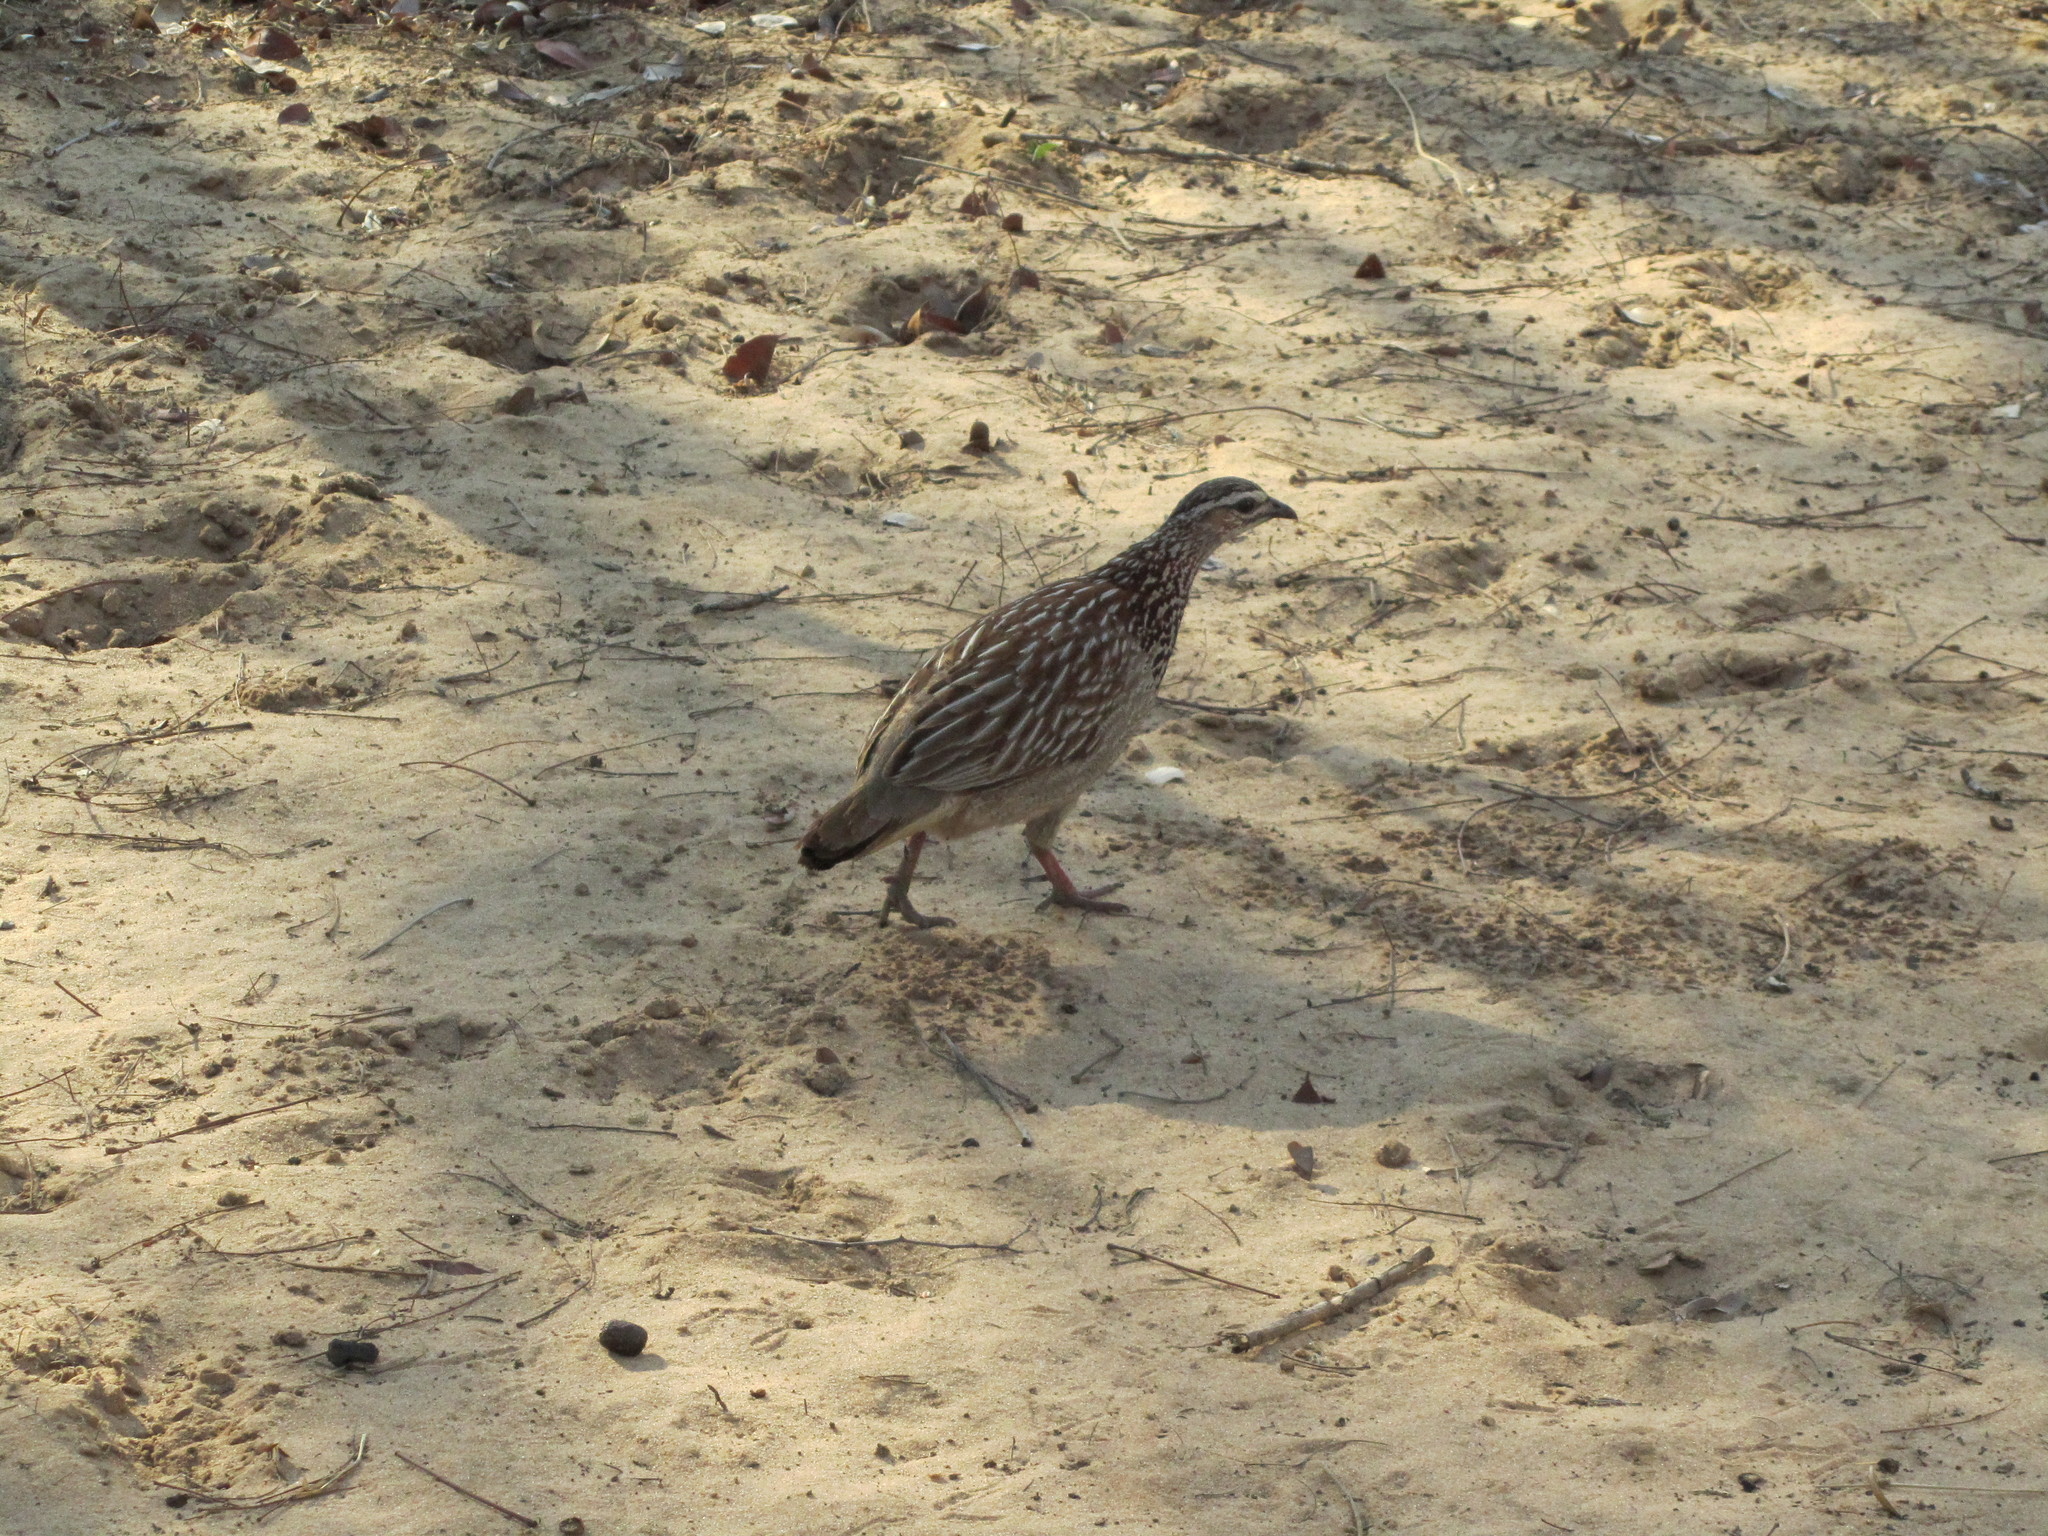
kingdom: Animalia
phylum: Chordata
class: Aves
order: Galliformes
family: Phasianidae
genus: Ortygornis
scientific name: Ortygornis sephaena
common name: Crested francolin
